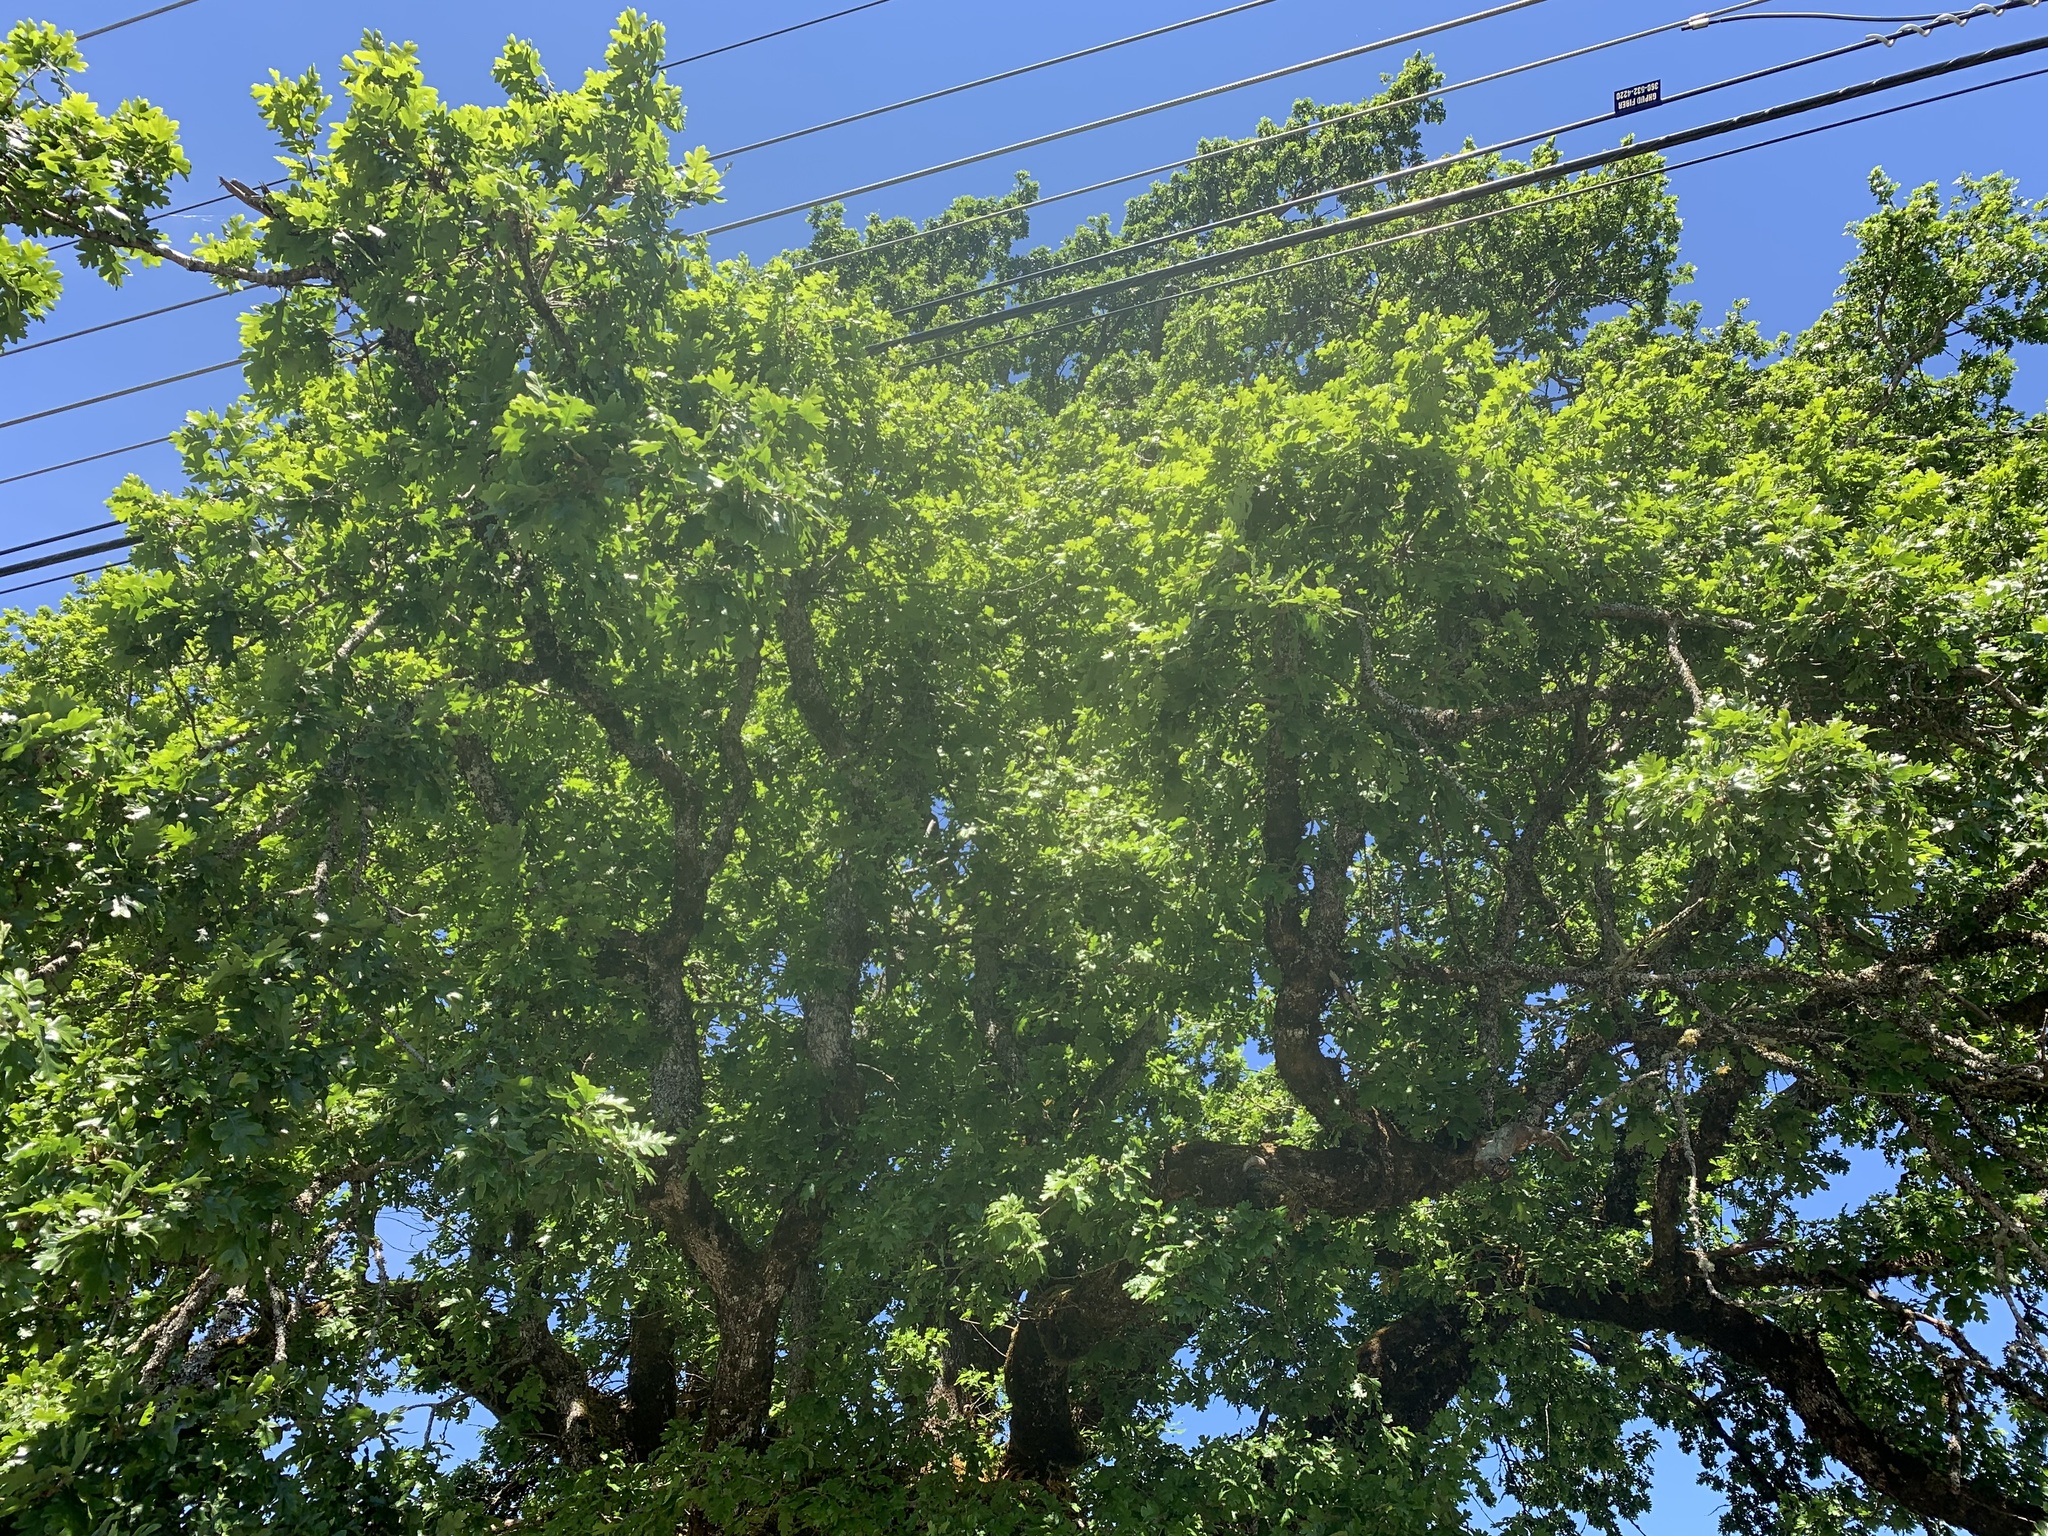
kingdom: Plantae
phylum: Tracheophyta
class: Magnoliopsida
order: Fagales
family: Fagaceae
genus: Quercus
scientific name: Quercus garryana
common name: Garry oak
